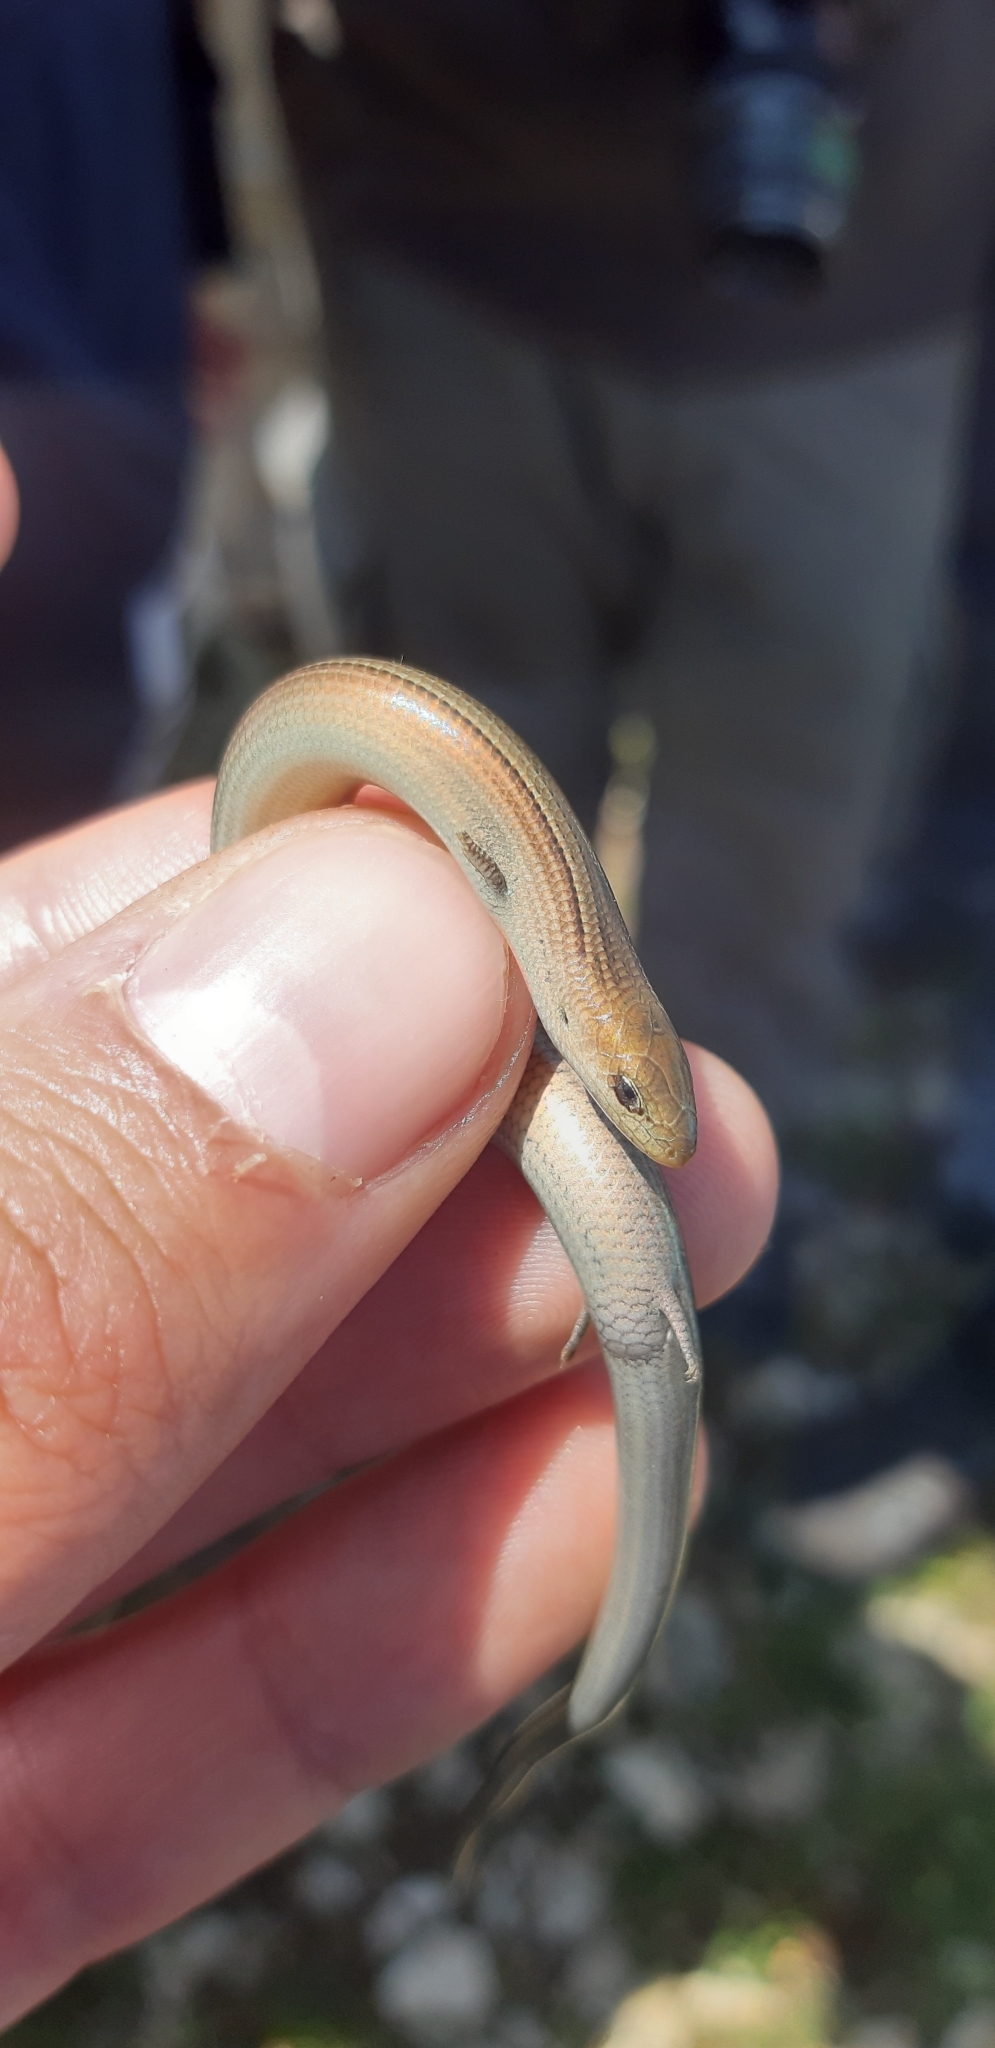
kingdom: Animalia
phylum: Chordata
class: Squamata
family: Scincidae
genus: Chalcides
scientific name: Chalcides chalcides
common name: Italian three-toed skink
